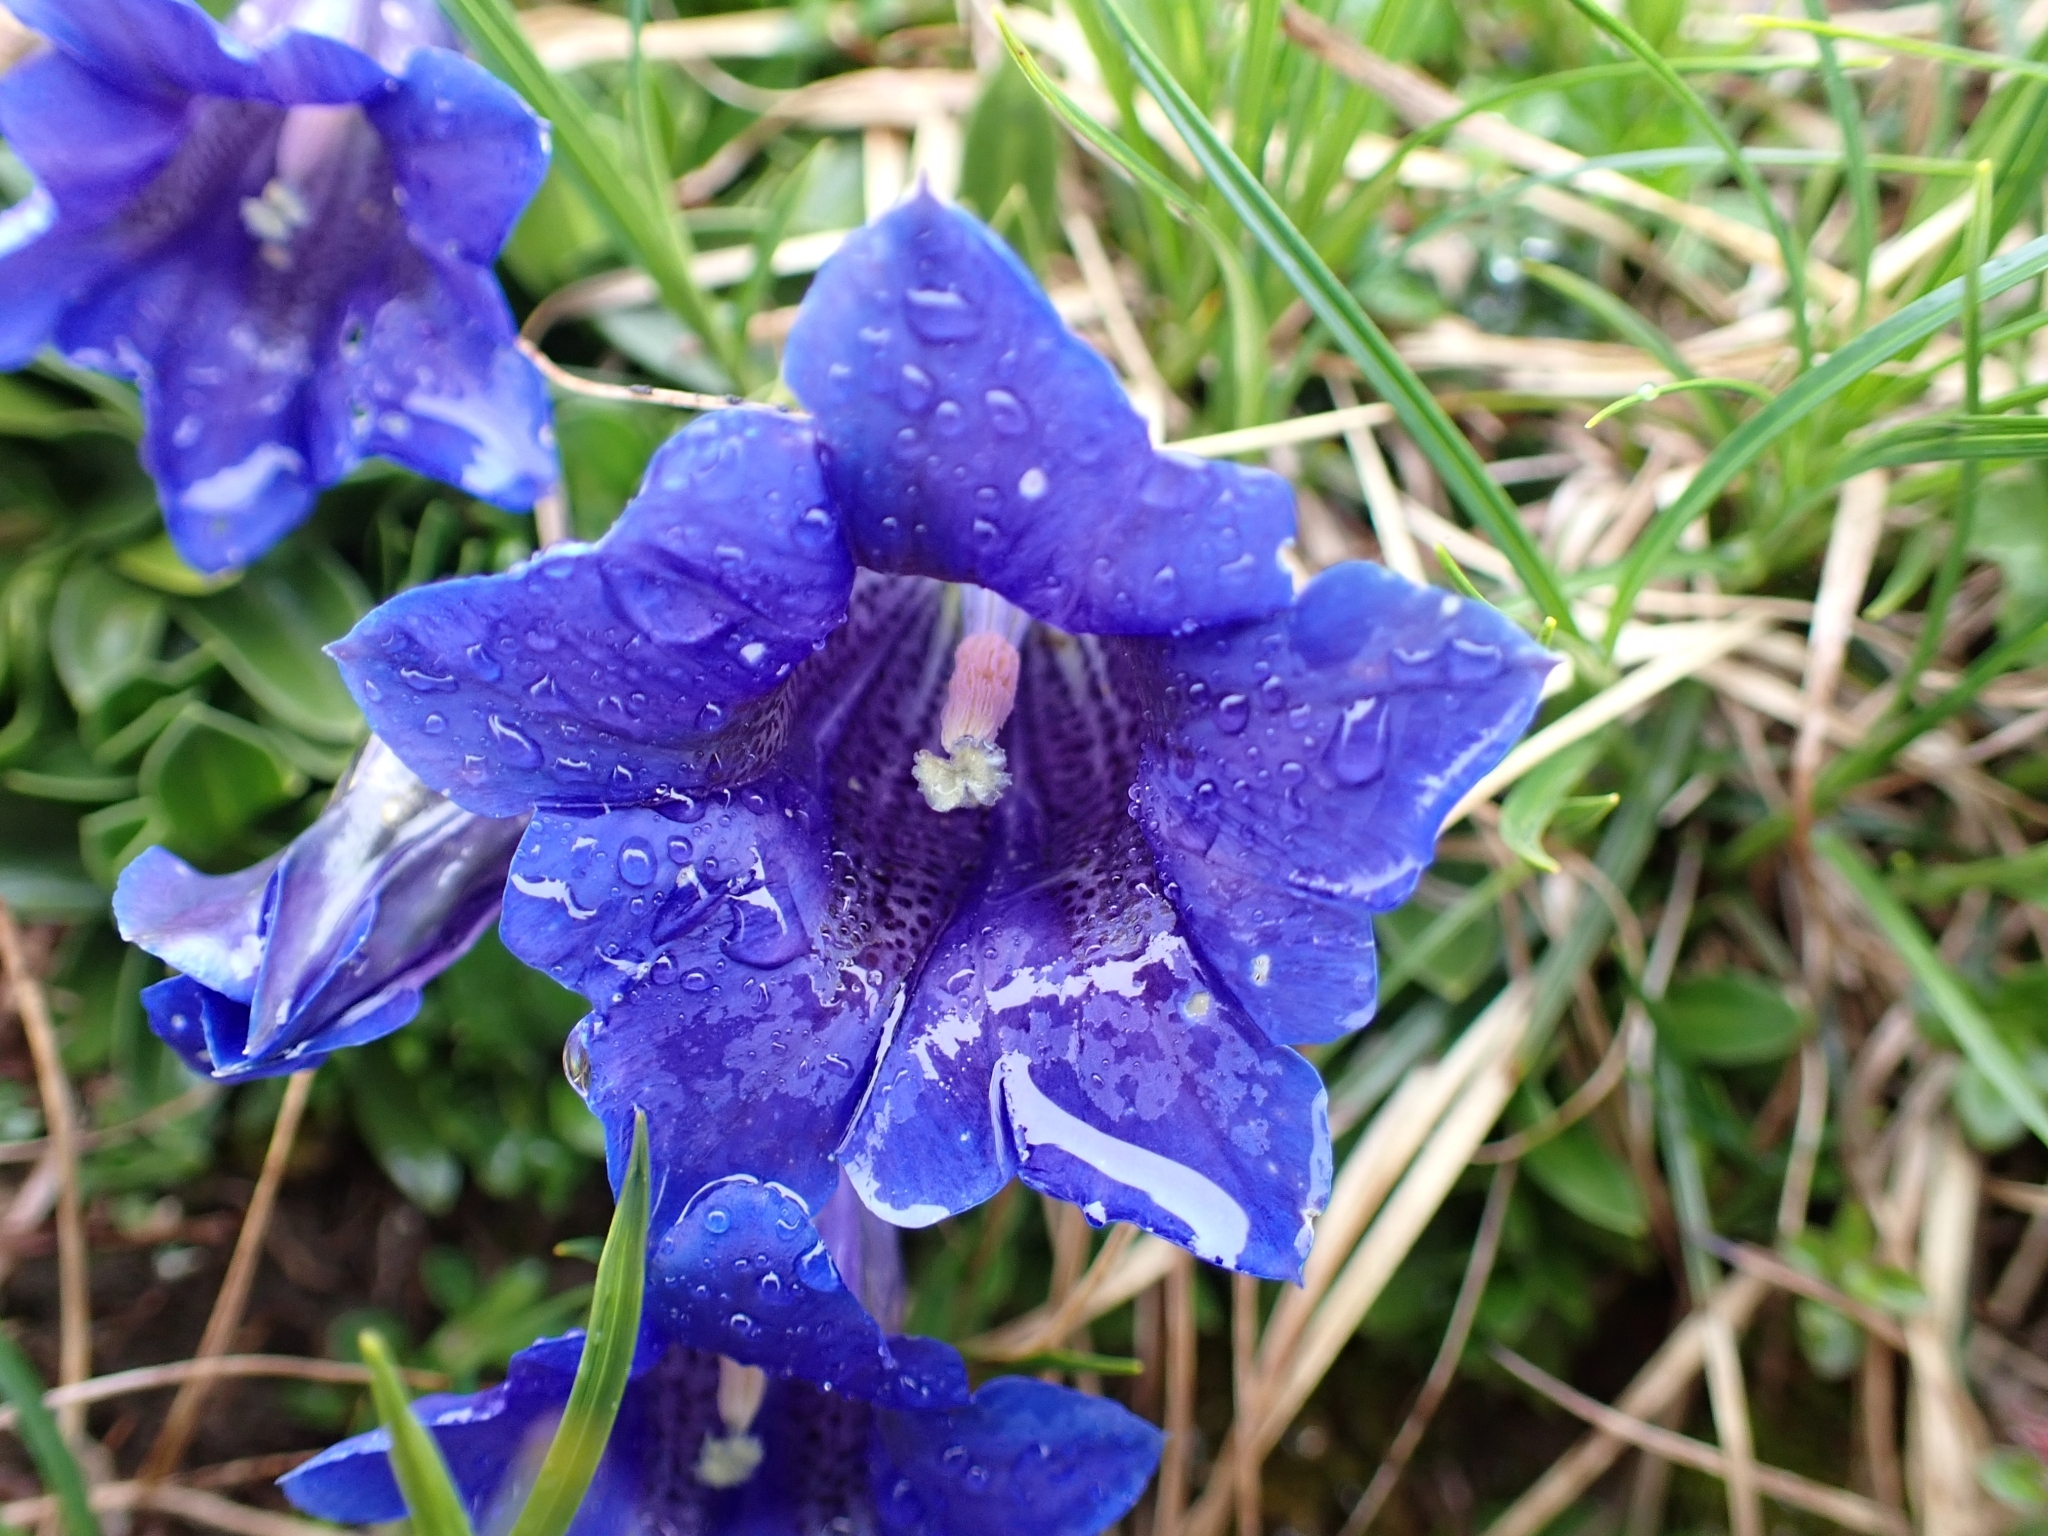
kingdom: Plantae
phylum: Tracheophyta
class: Magnoliopsida
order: Gentianales
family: Gentianaceae
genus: Gentiana
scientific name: Gentiana clusii
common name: Trumpet gentian
